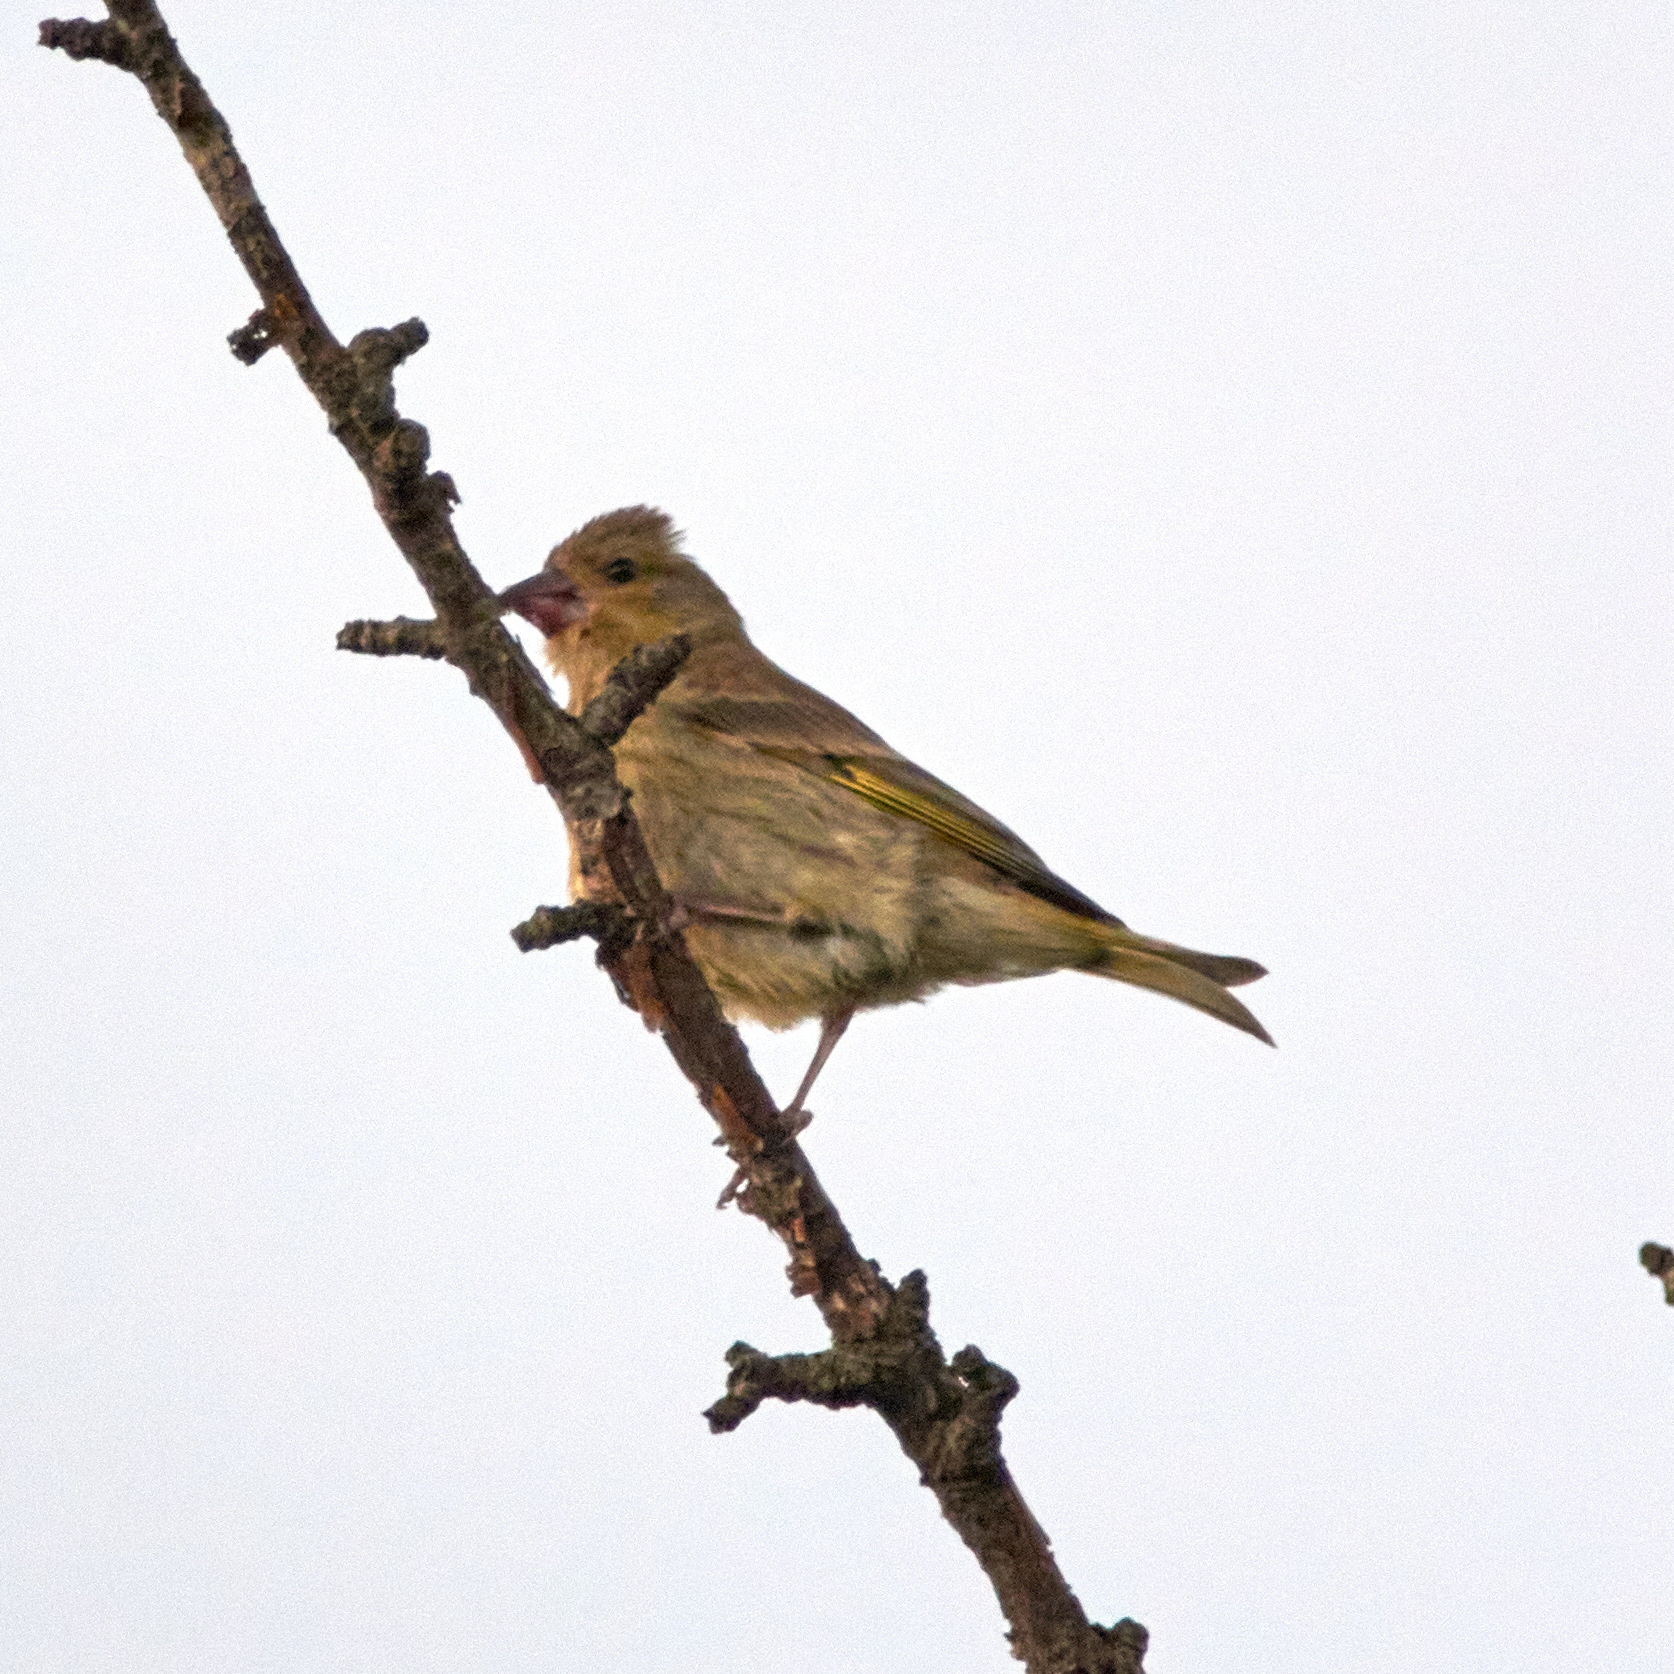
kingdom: Plantae
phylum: Tracheophyta
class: Liliopsida
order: Poales
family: Poaceae
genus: Chloris
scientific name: Chloris chloris
